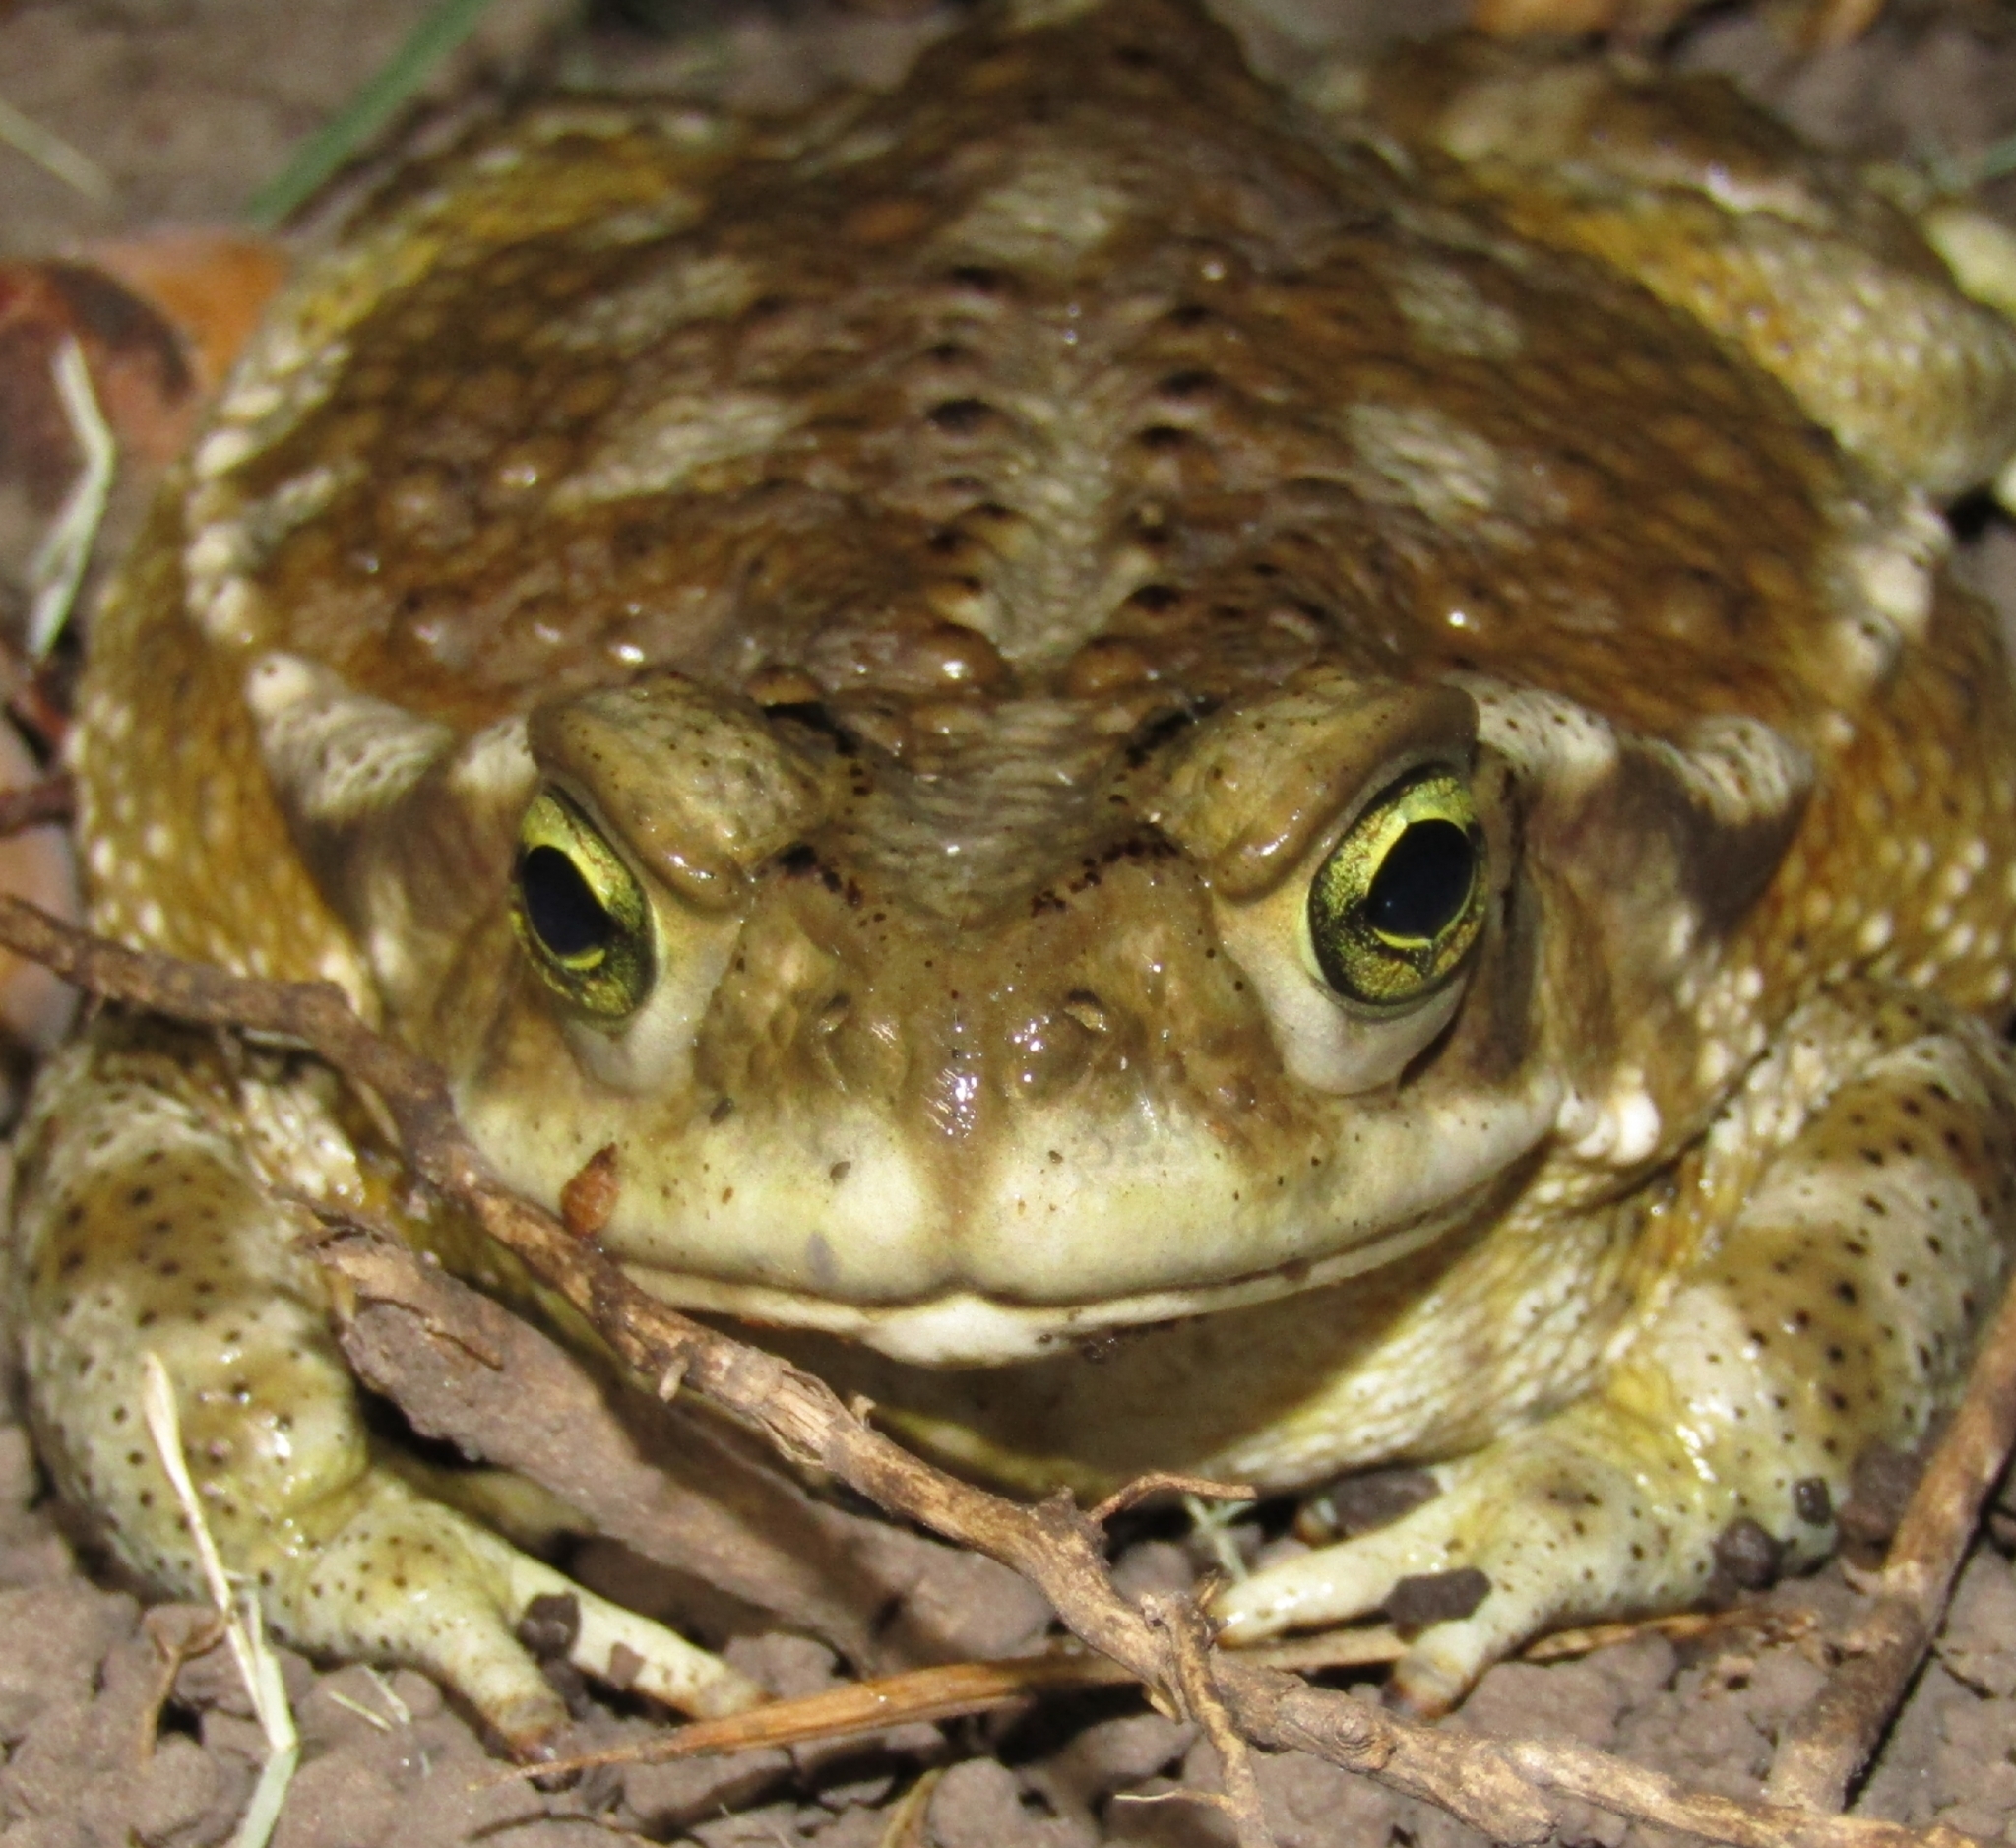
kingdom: Animalia
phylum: Chordata
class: Amphibia
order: Anura
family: Bufonidae
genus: Rhinella
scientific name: Rhinella arenarum
